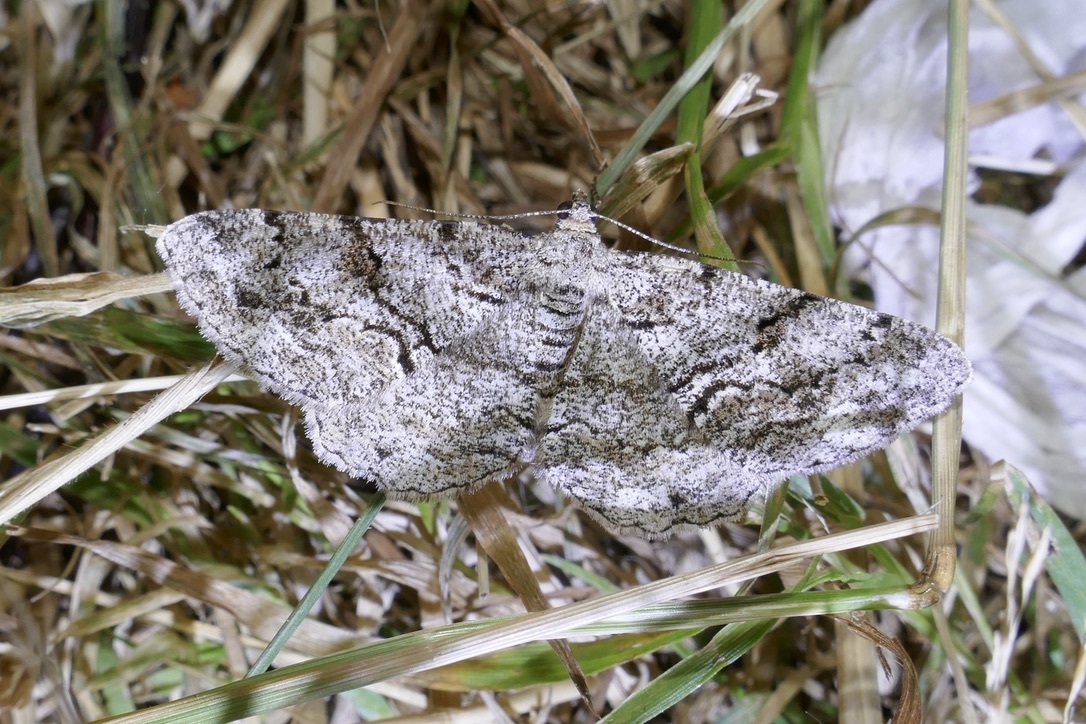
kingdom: Animalia
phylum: Arthropoda
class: Insecta
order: Lepidoptera
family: Geometridae
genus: Peribatodes
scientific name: Peribatodes secundaria
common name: Feathered beauty
